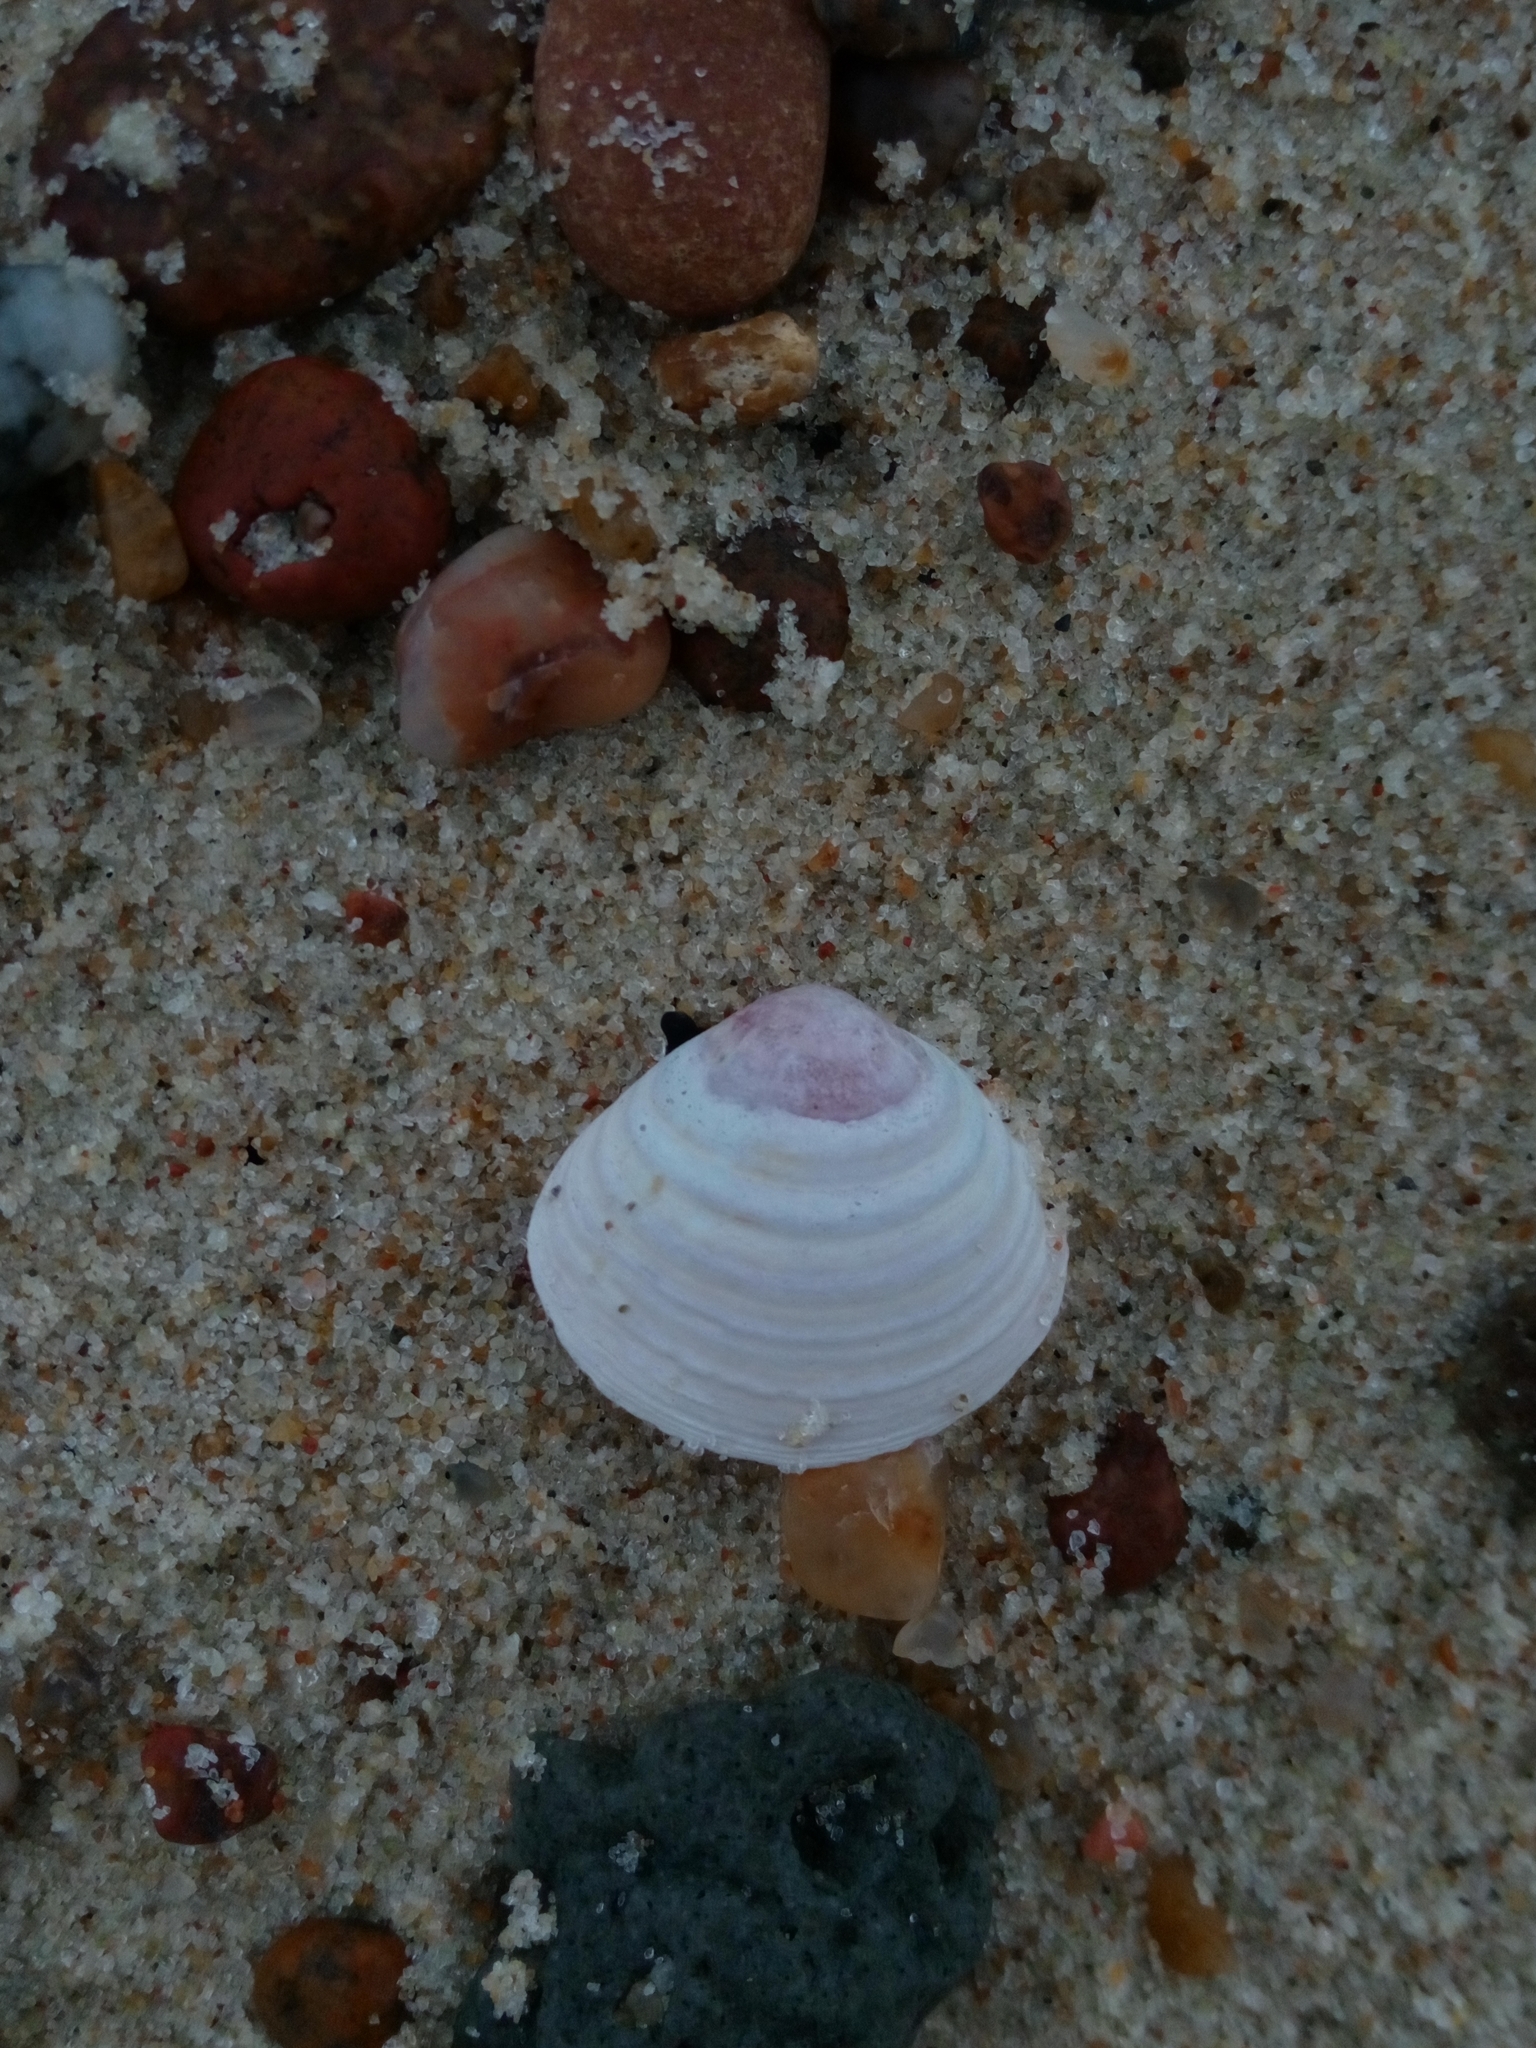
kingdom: Animalia
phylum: Mollusca
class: Bivalvia
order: Cardiida
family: Tellinidae
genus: Macoma
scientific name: Macoma balthica
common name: Baltic tellin
